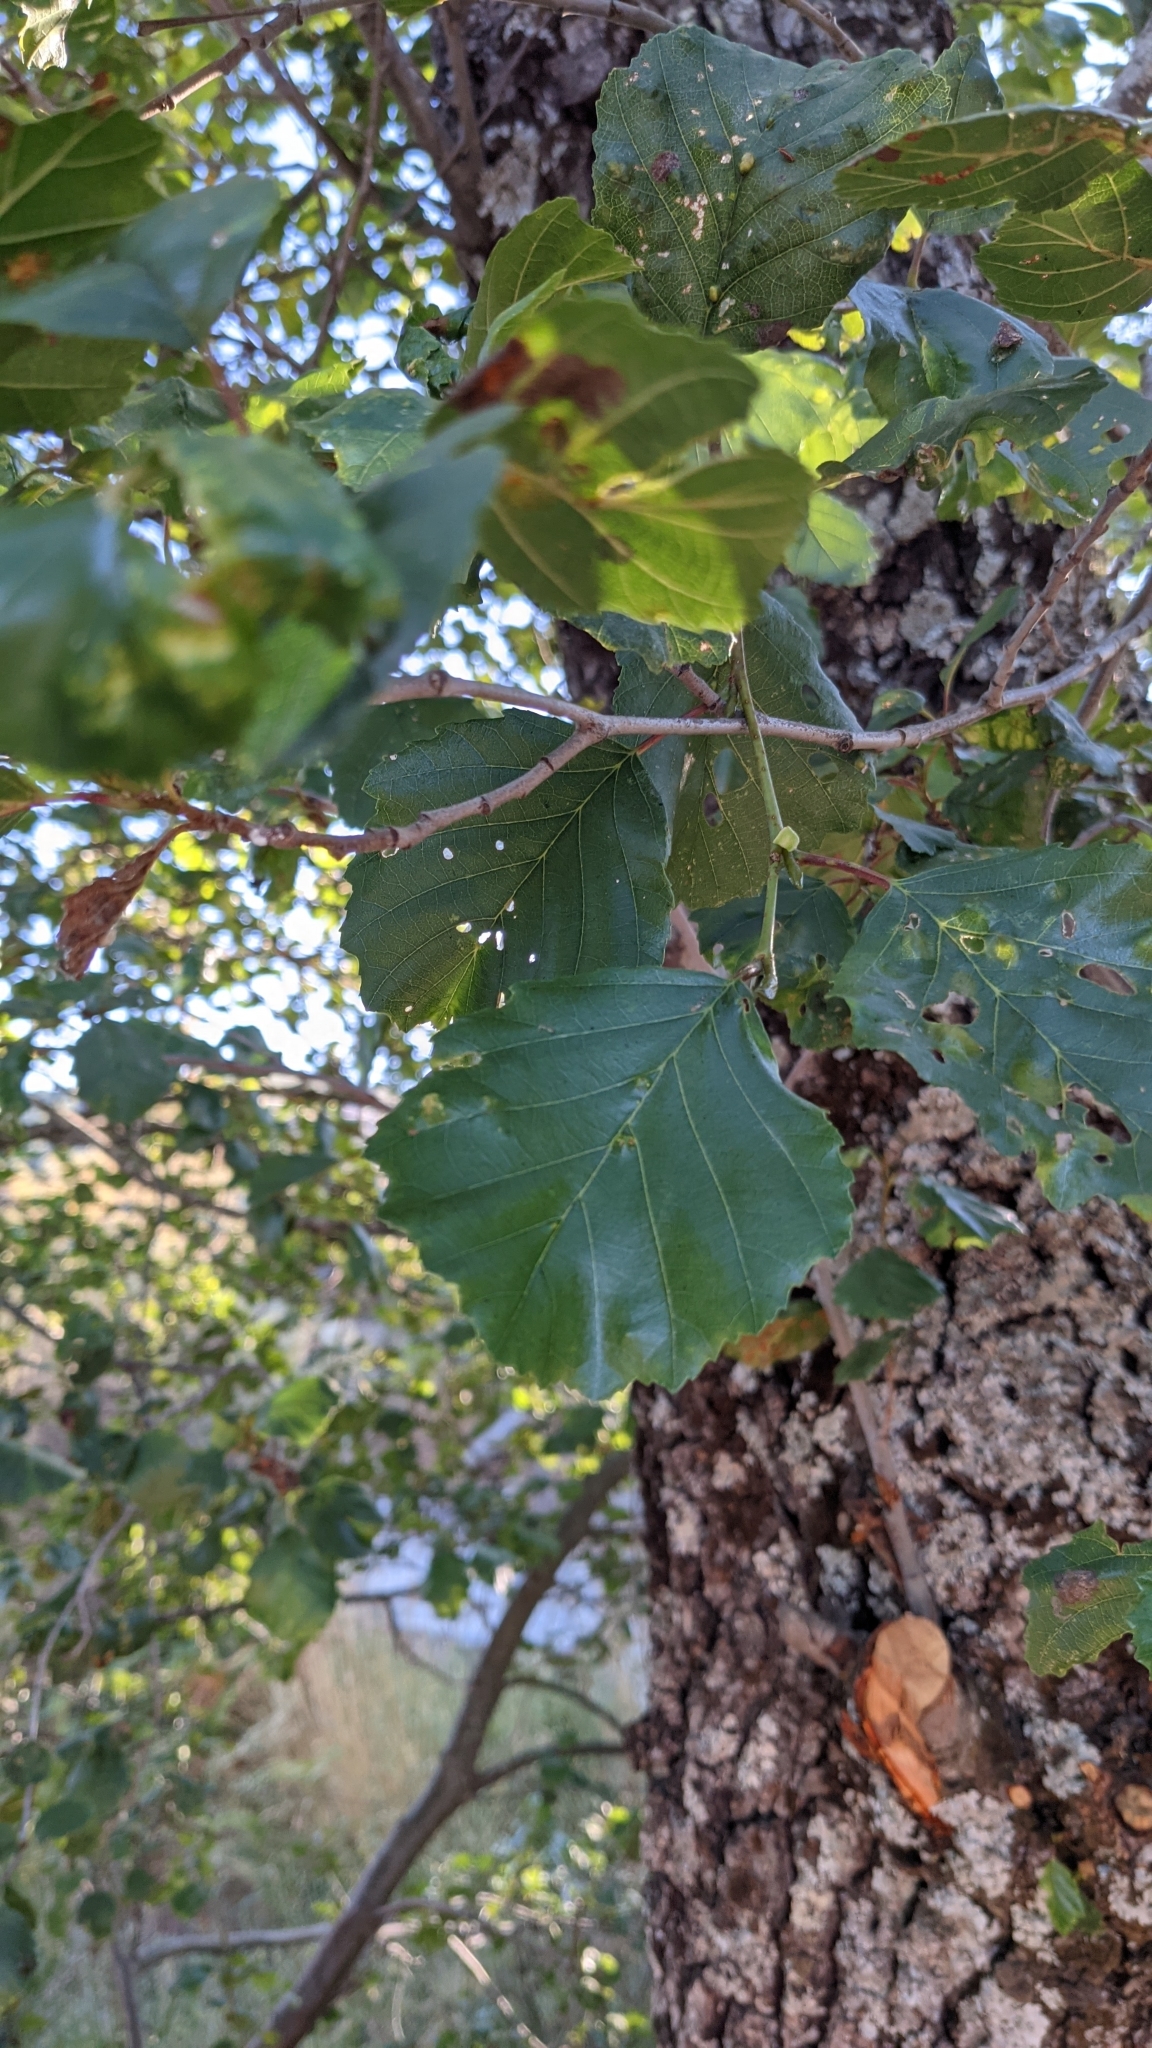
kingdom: Plantae
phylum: Tracheophyta
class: Magnoliopsida
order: Fagales
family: Betulaceae
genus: Alnus
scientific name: Alnus lusitanica
